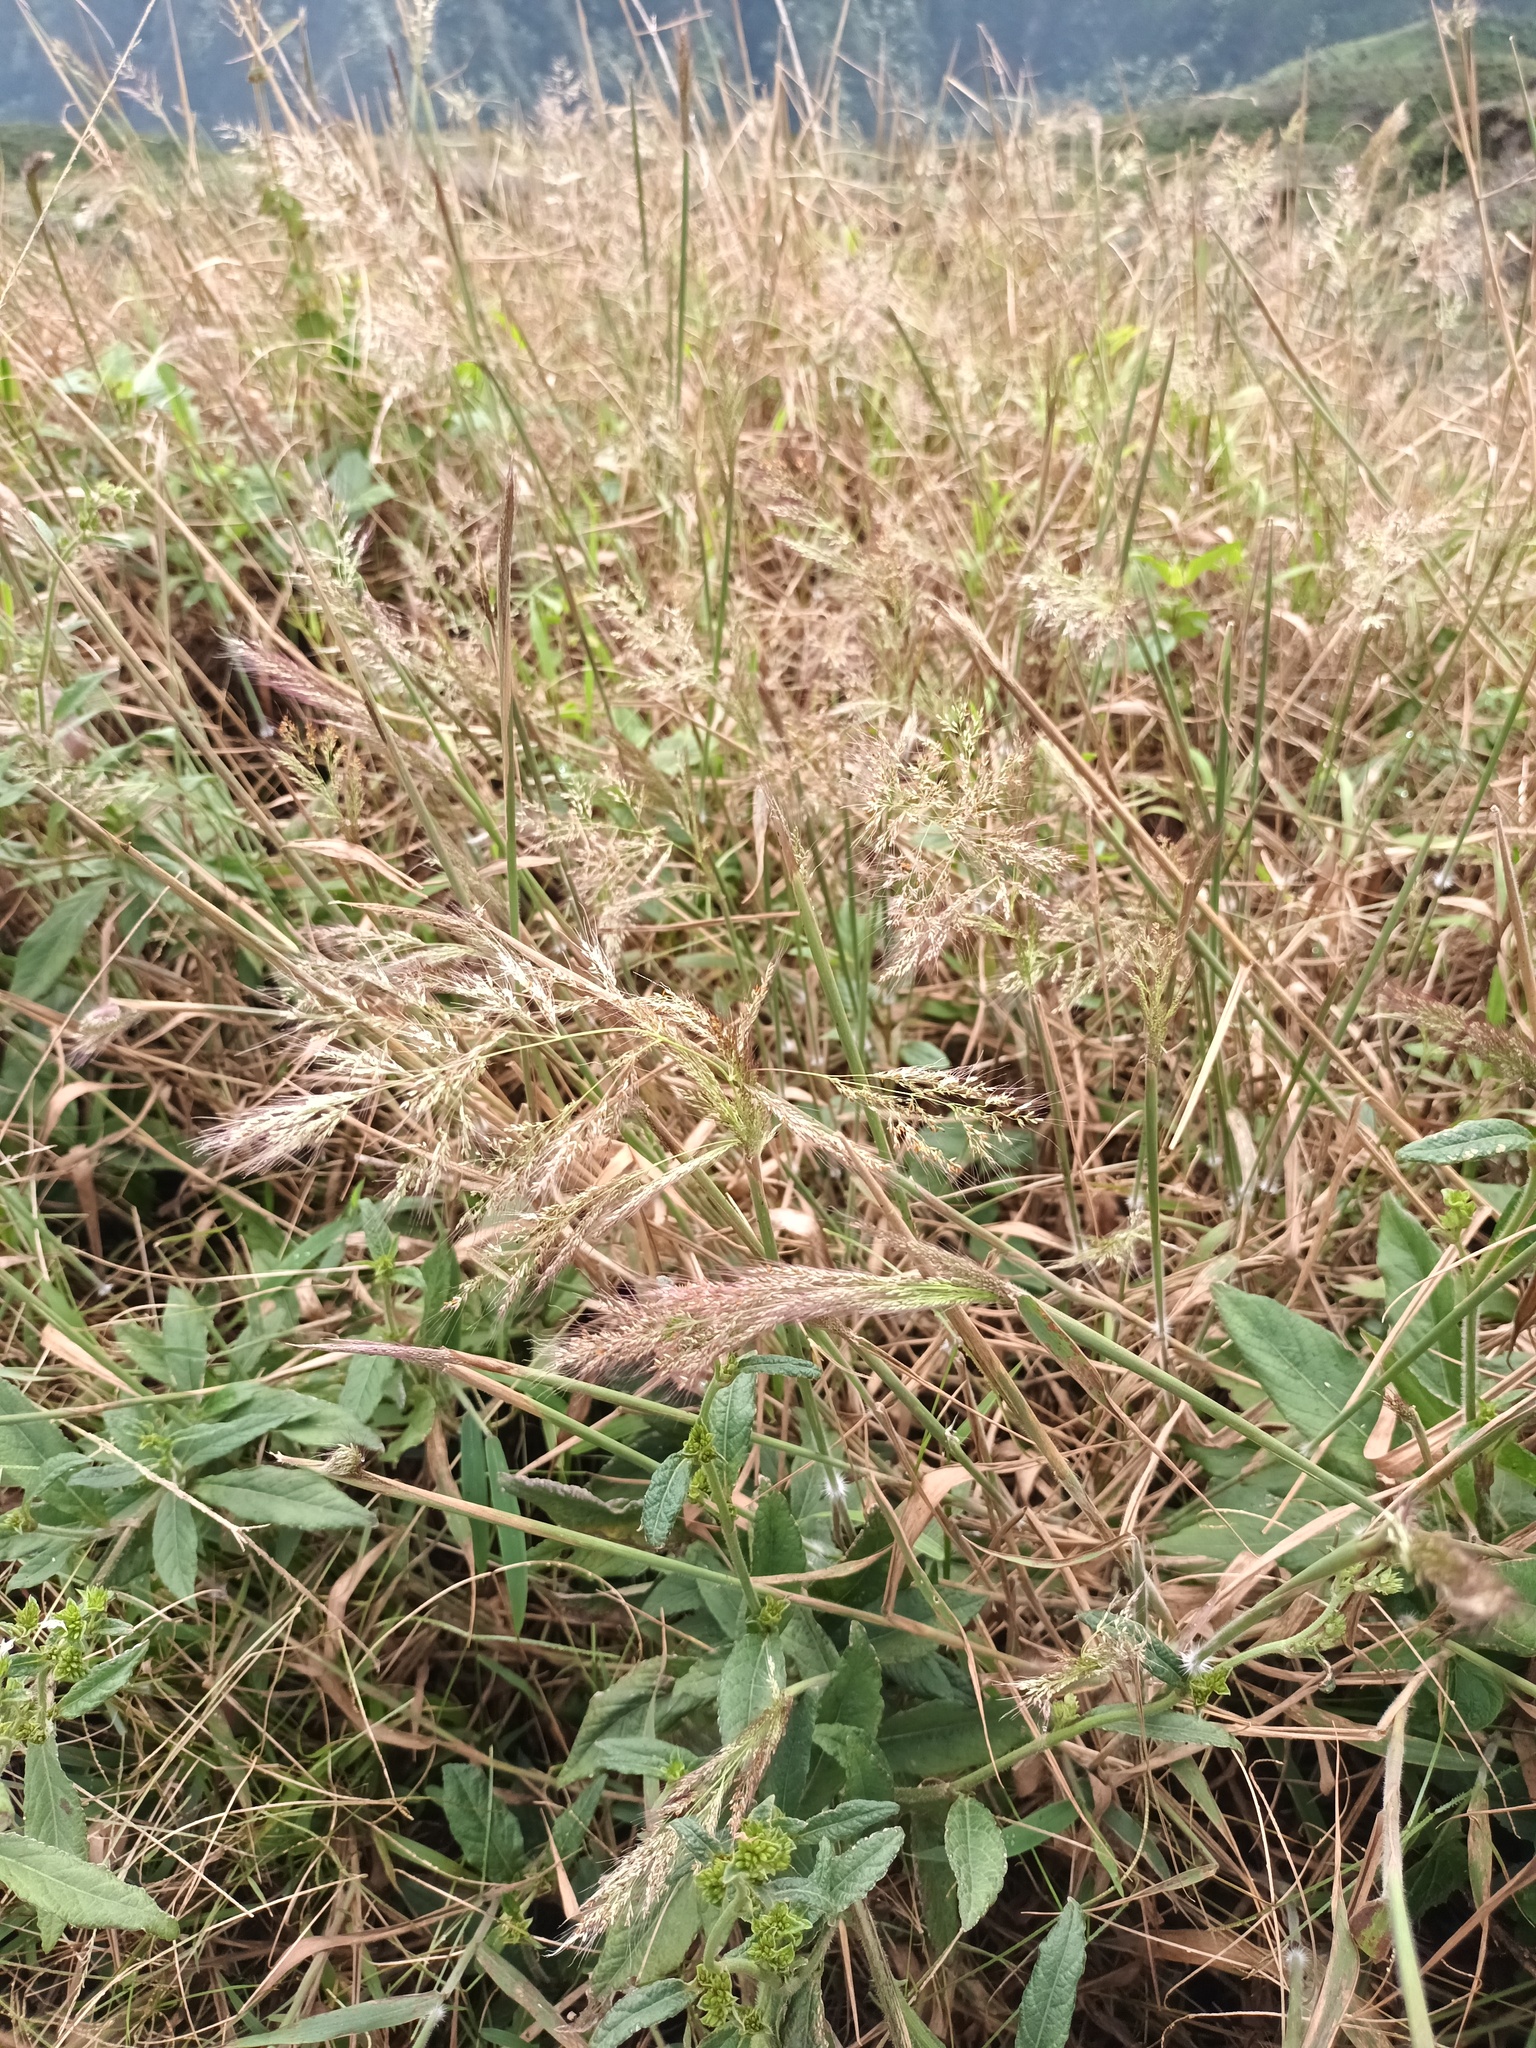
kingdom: Plantae
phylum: Tracheophyta
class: Liliopsida
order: Poales
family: Poaceae
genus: Melinis
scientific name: Melinis minutiflora
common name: Molassesgrass
